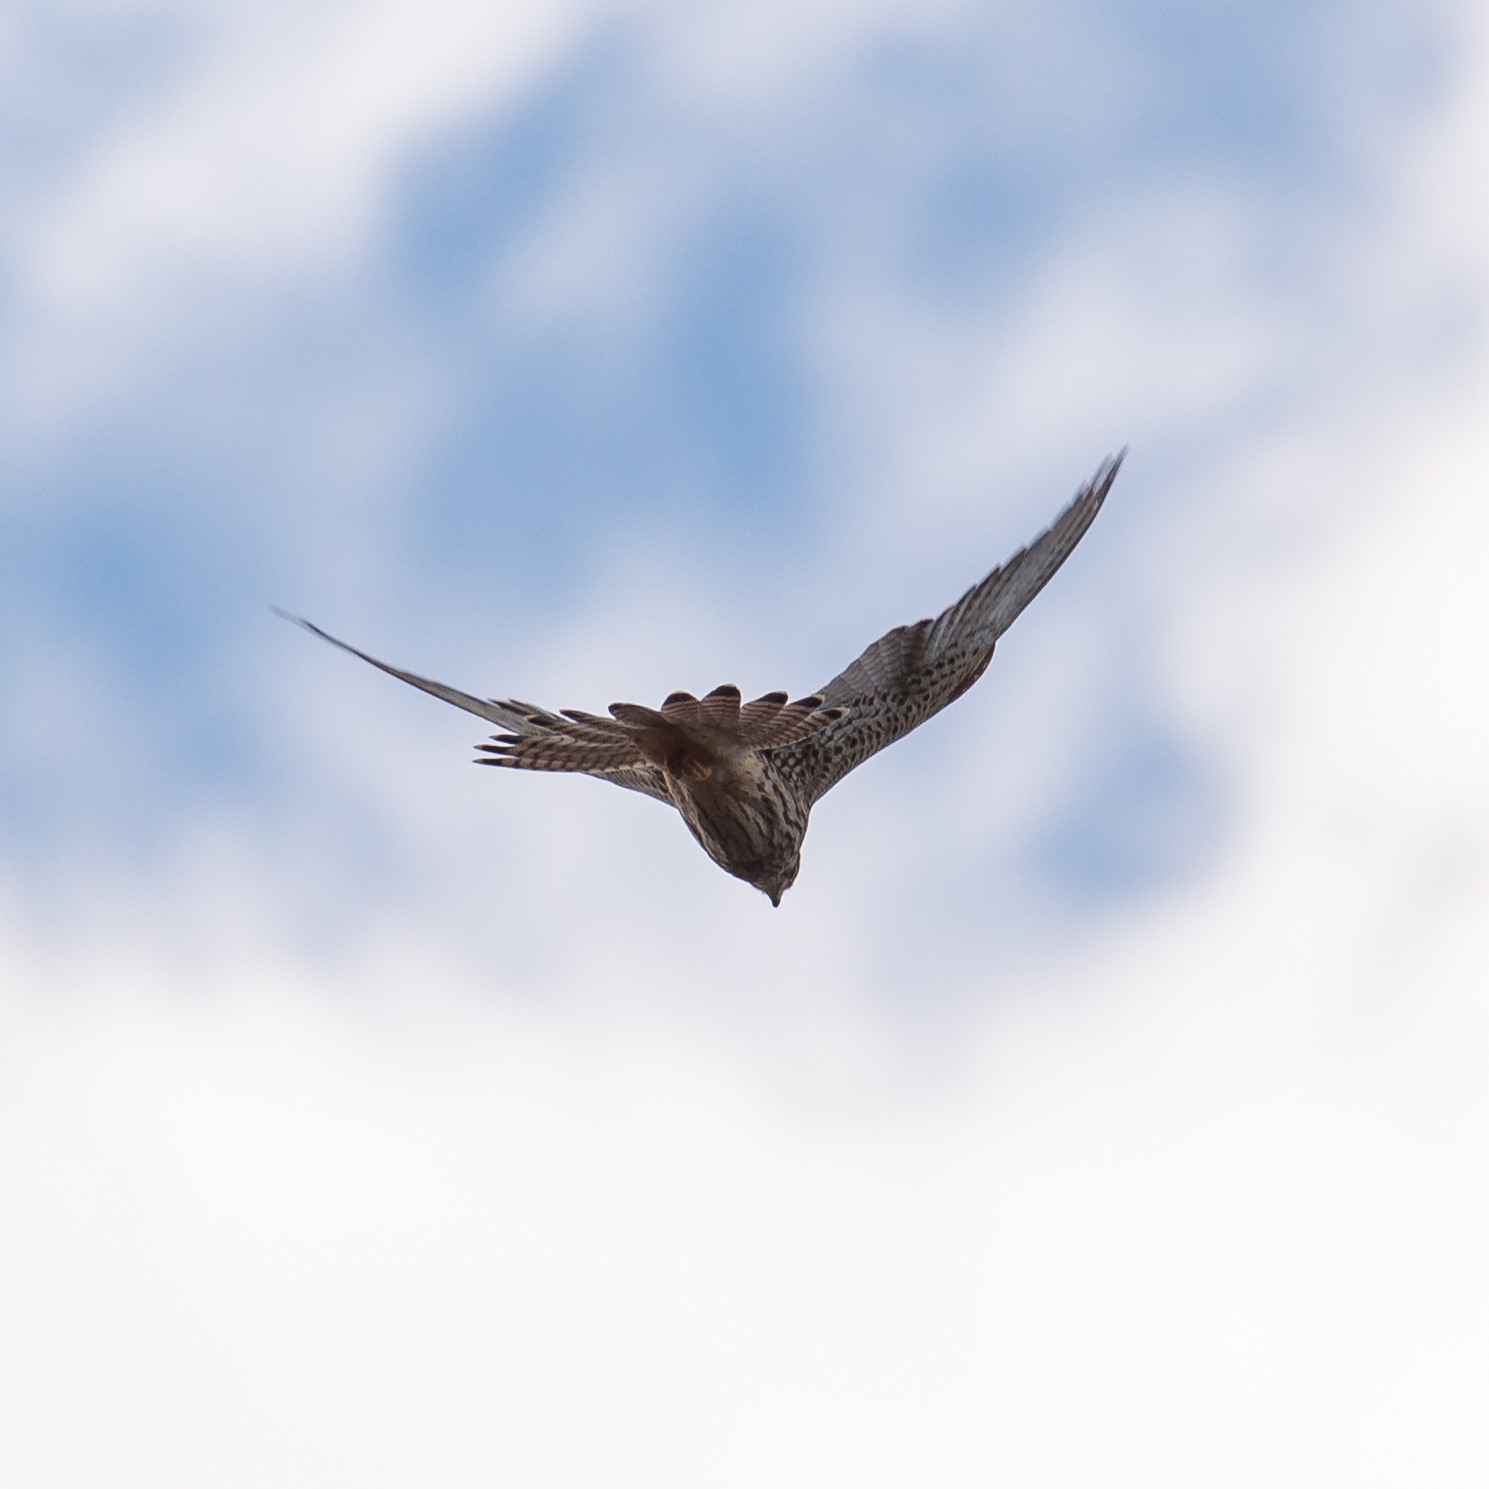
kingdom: Animalia
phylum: Chordata
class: Aves
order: Falconiformes
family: Falconidae
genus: Falco
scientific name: Falco tinnunculus
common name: Common kestrel
